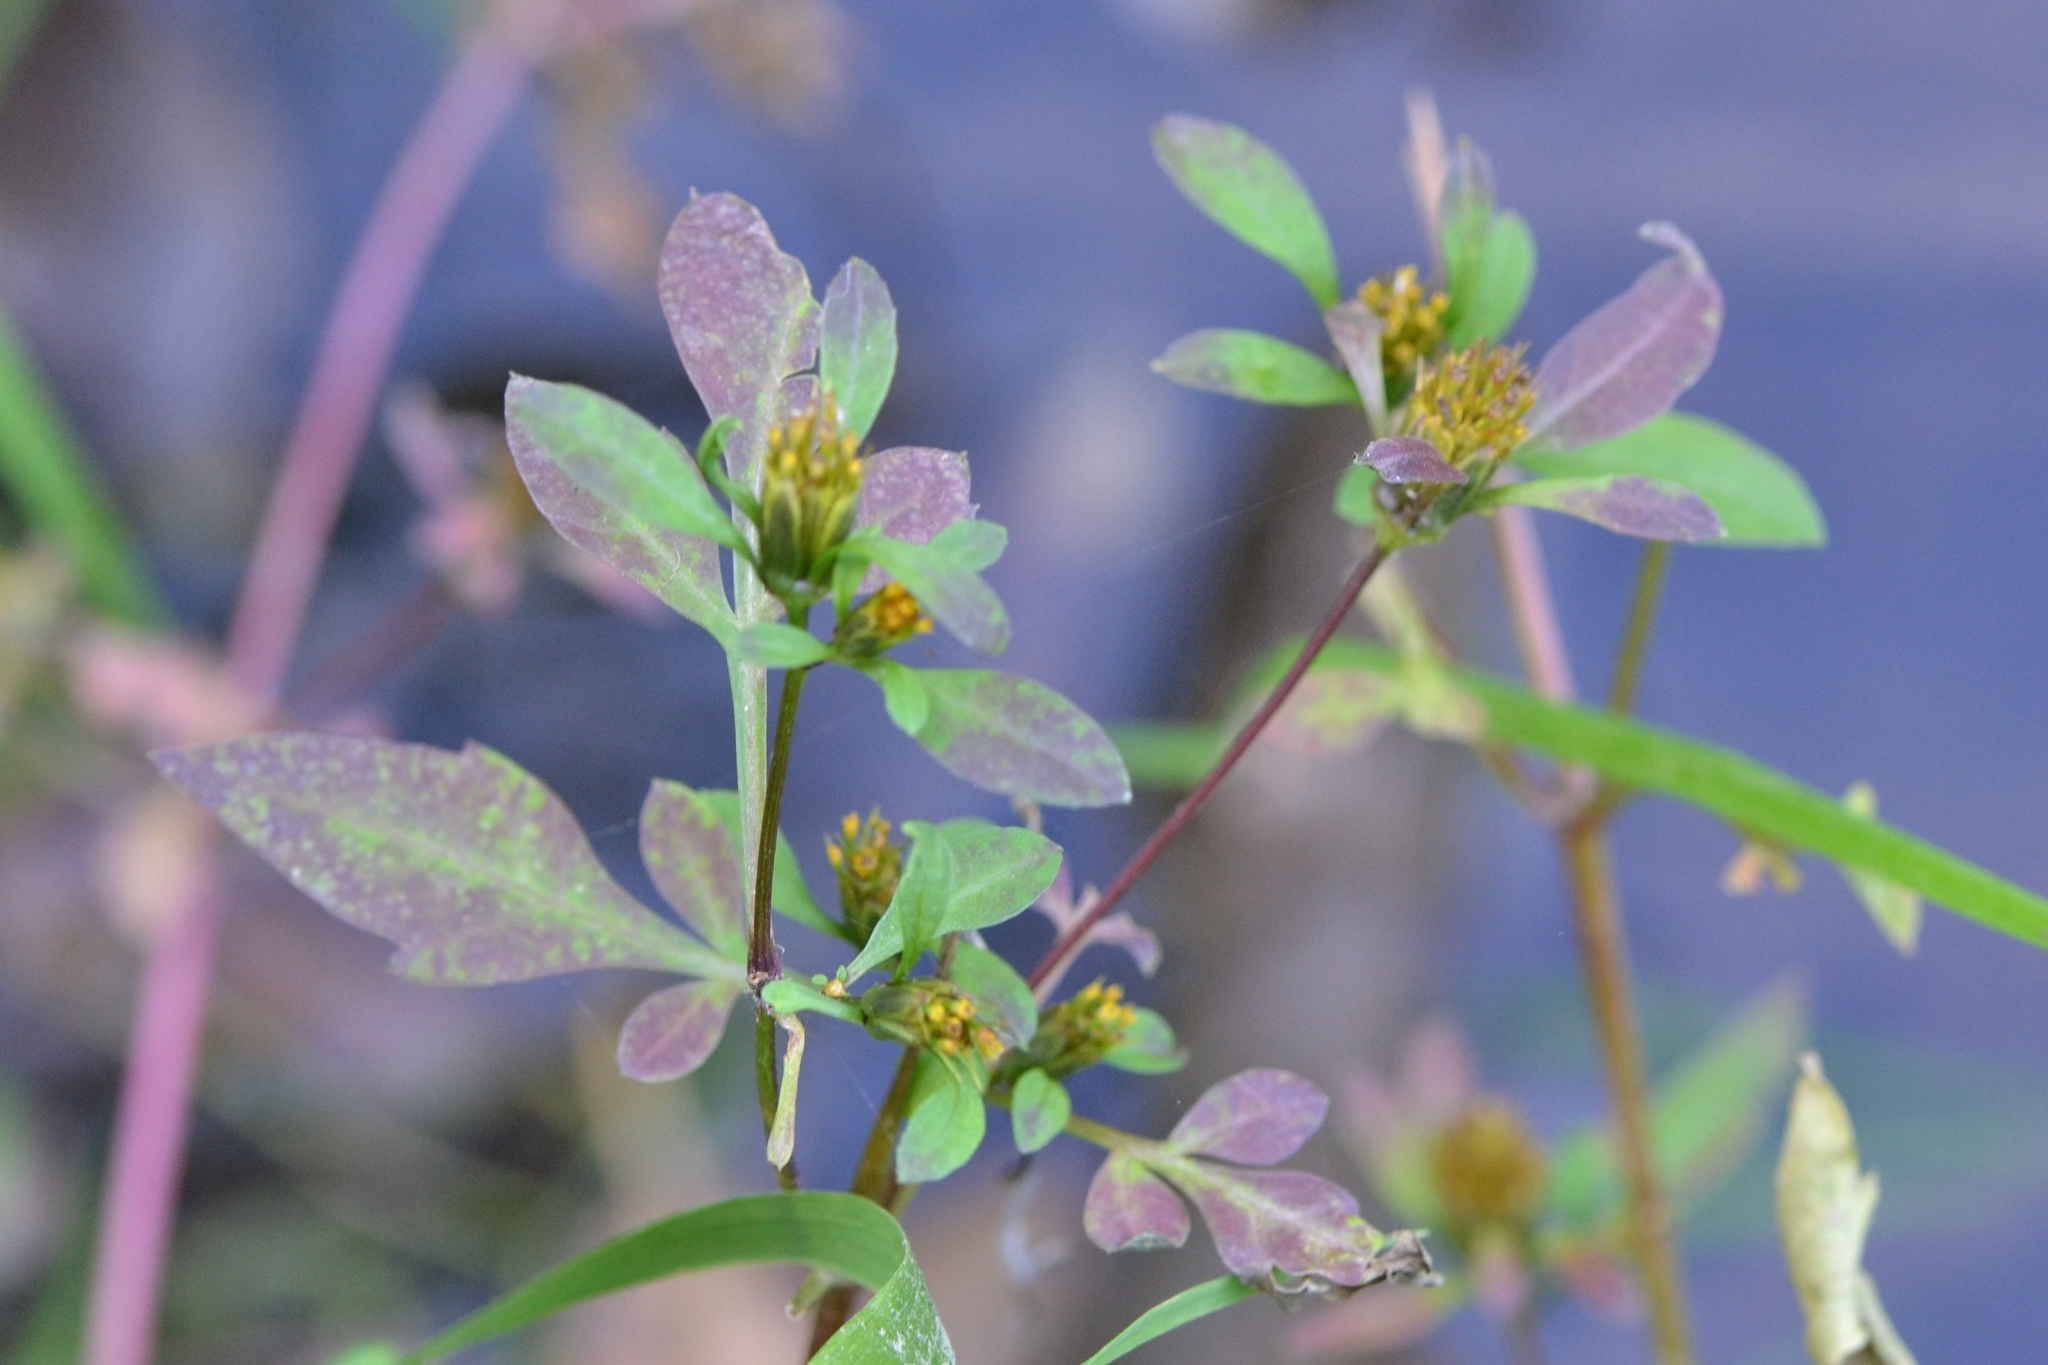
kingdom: Plantae
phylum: Tracheophyta
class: Magnoliopsida
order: Asterales
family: Asteraceae
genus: Bidens
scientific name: Bidens frondosa
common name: Beggarticks
